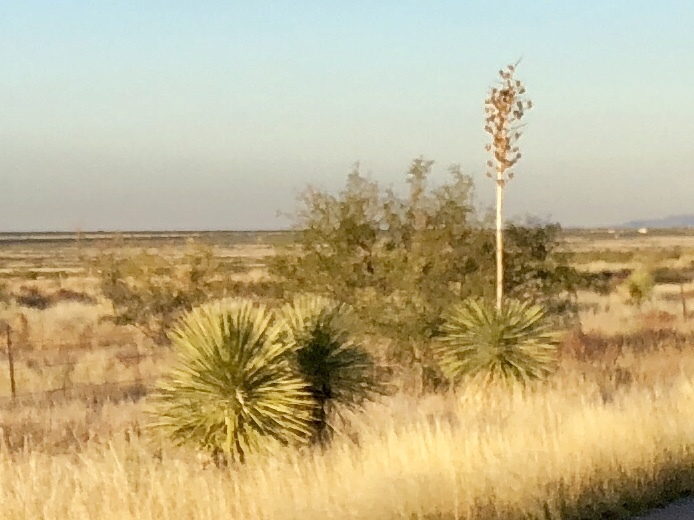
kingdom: Plantae
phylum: Tracheophyta
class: Liliopsida
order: Asparagales
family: Asparagaceae
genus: Yucca
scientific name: Yucca elata
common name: Palmella
